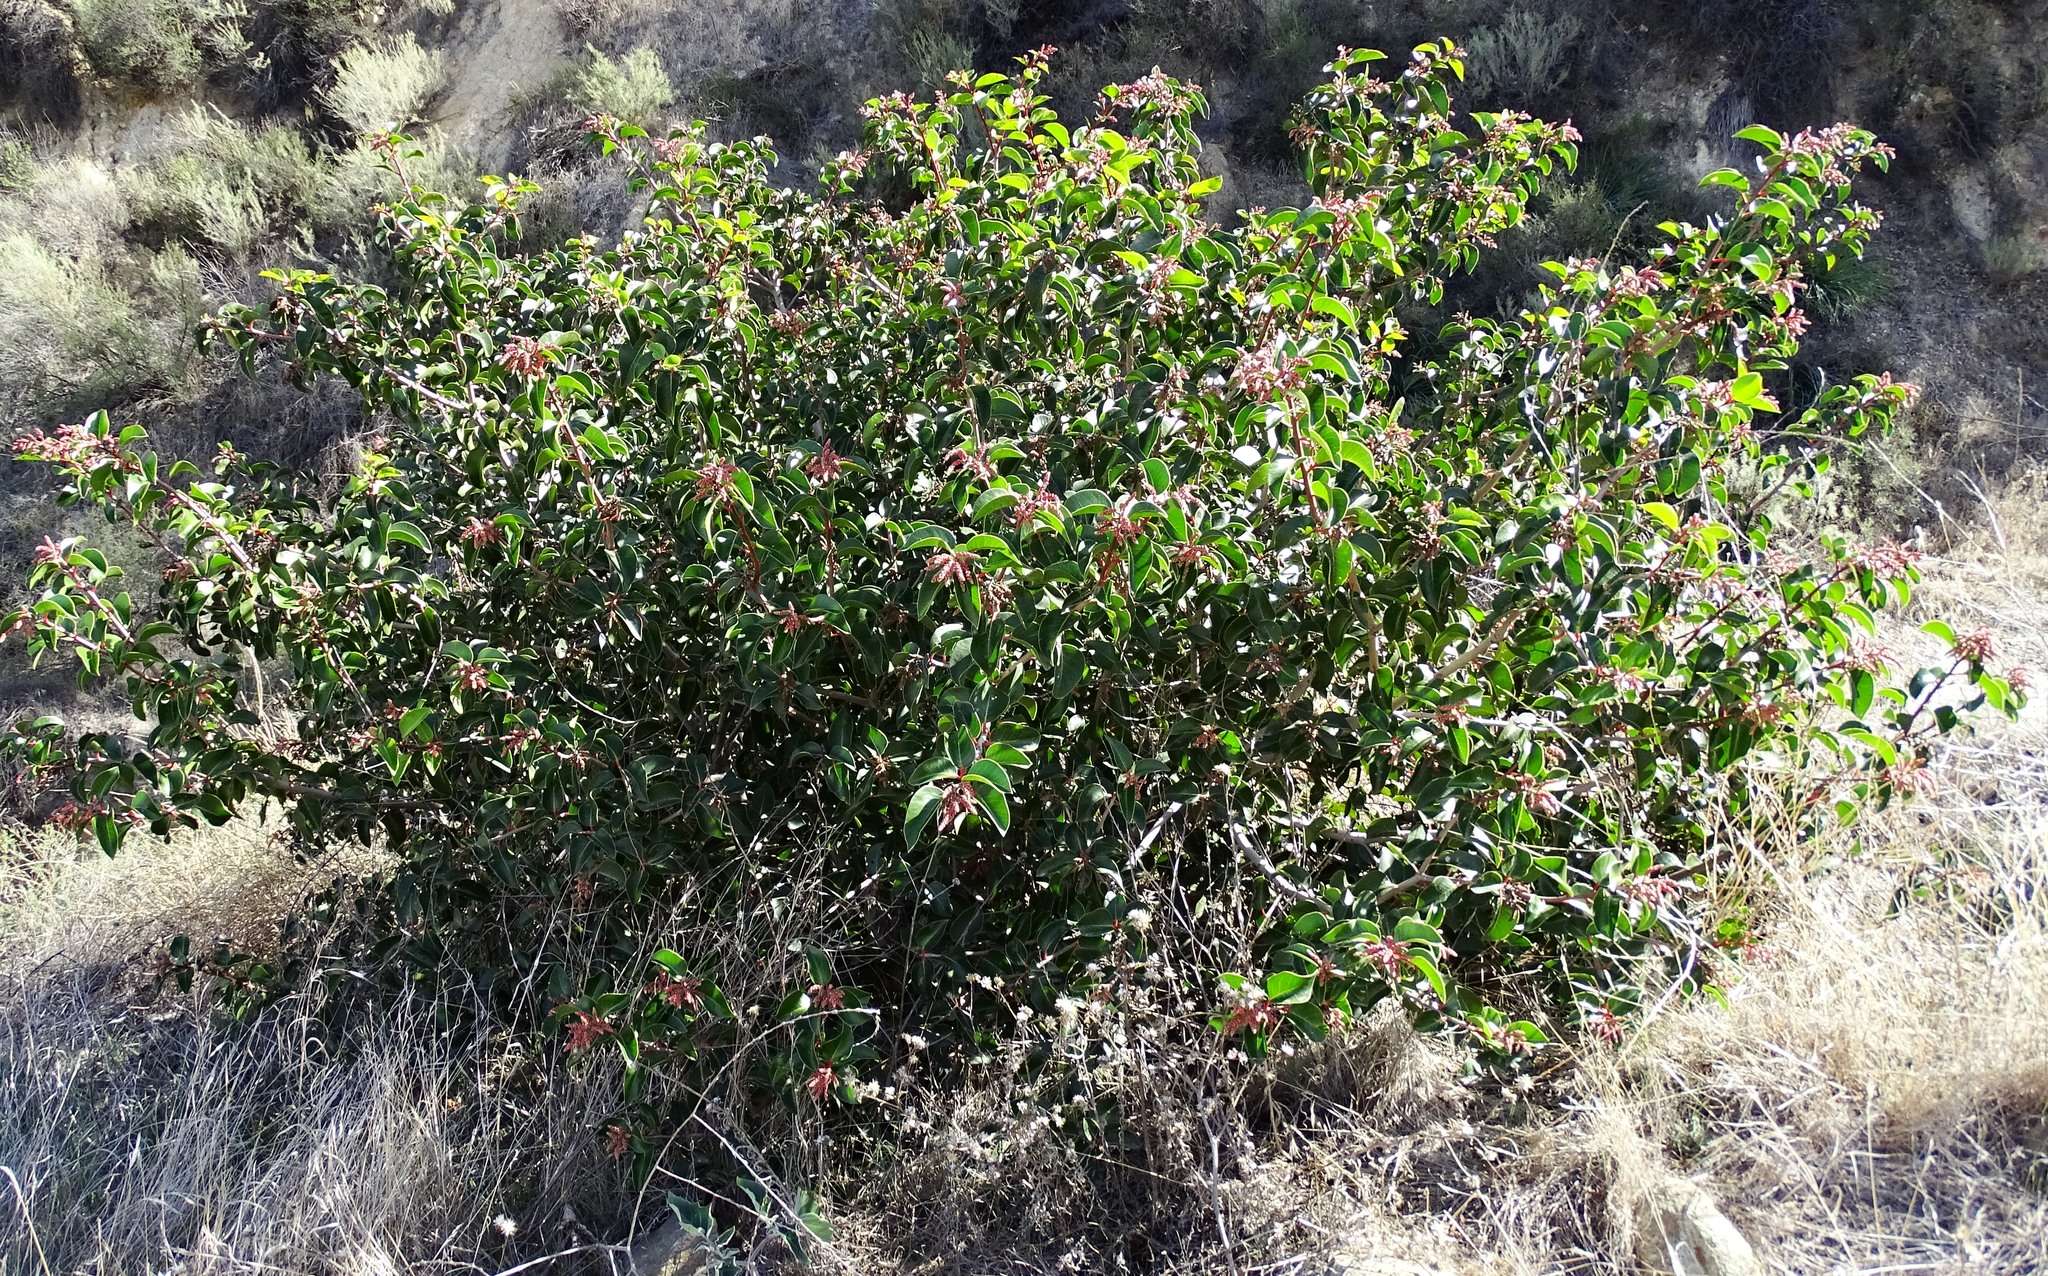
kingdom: Plantae
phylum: Tracheophyta
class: Magnoliopsida
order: Sapindales
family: Anacardiaceae
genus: Rhus
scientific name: Rhus ovata
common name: Sugar sumac
